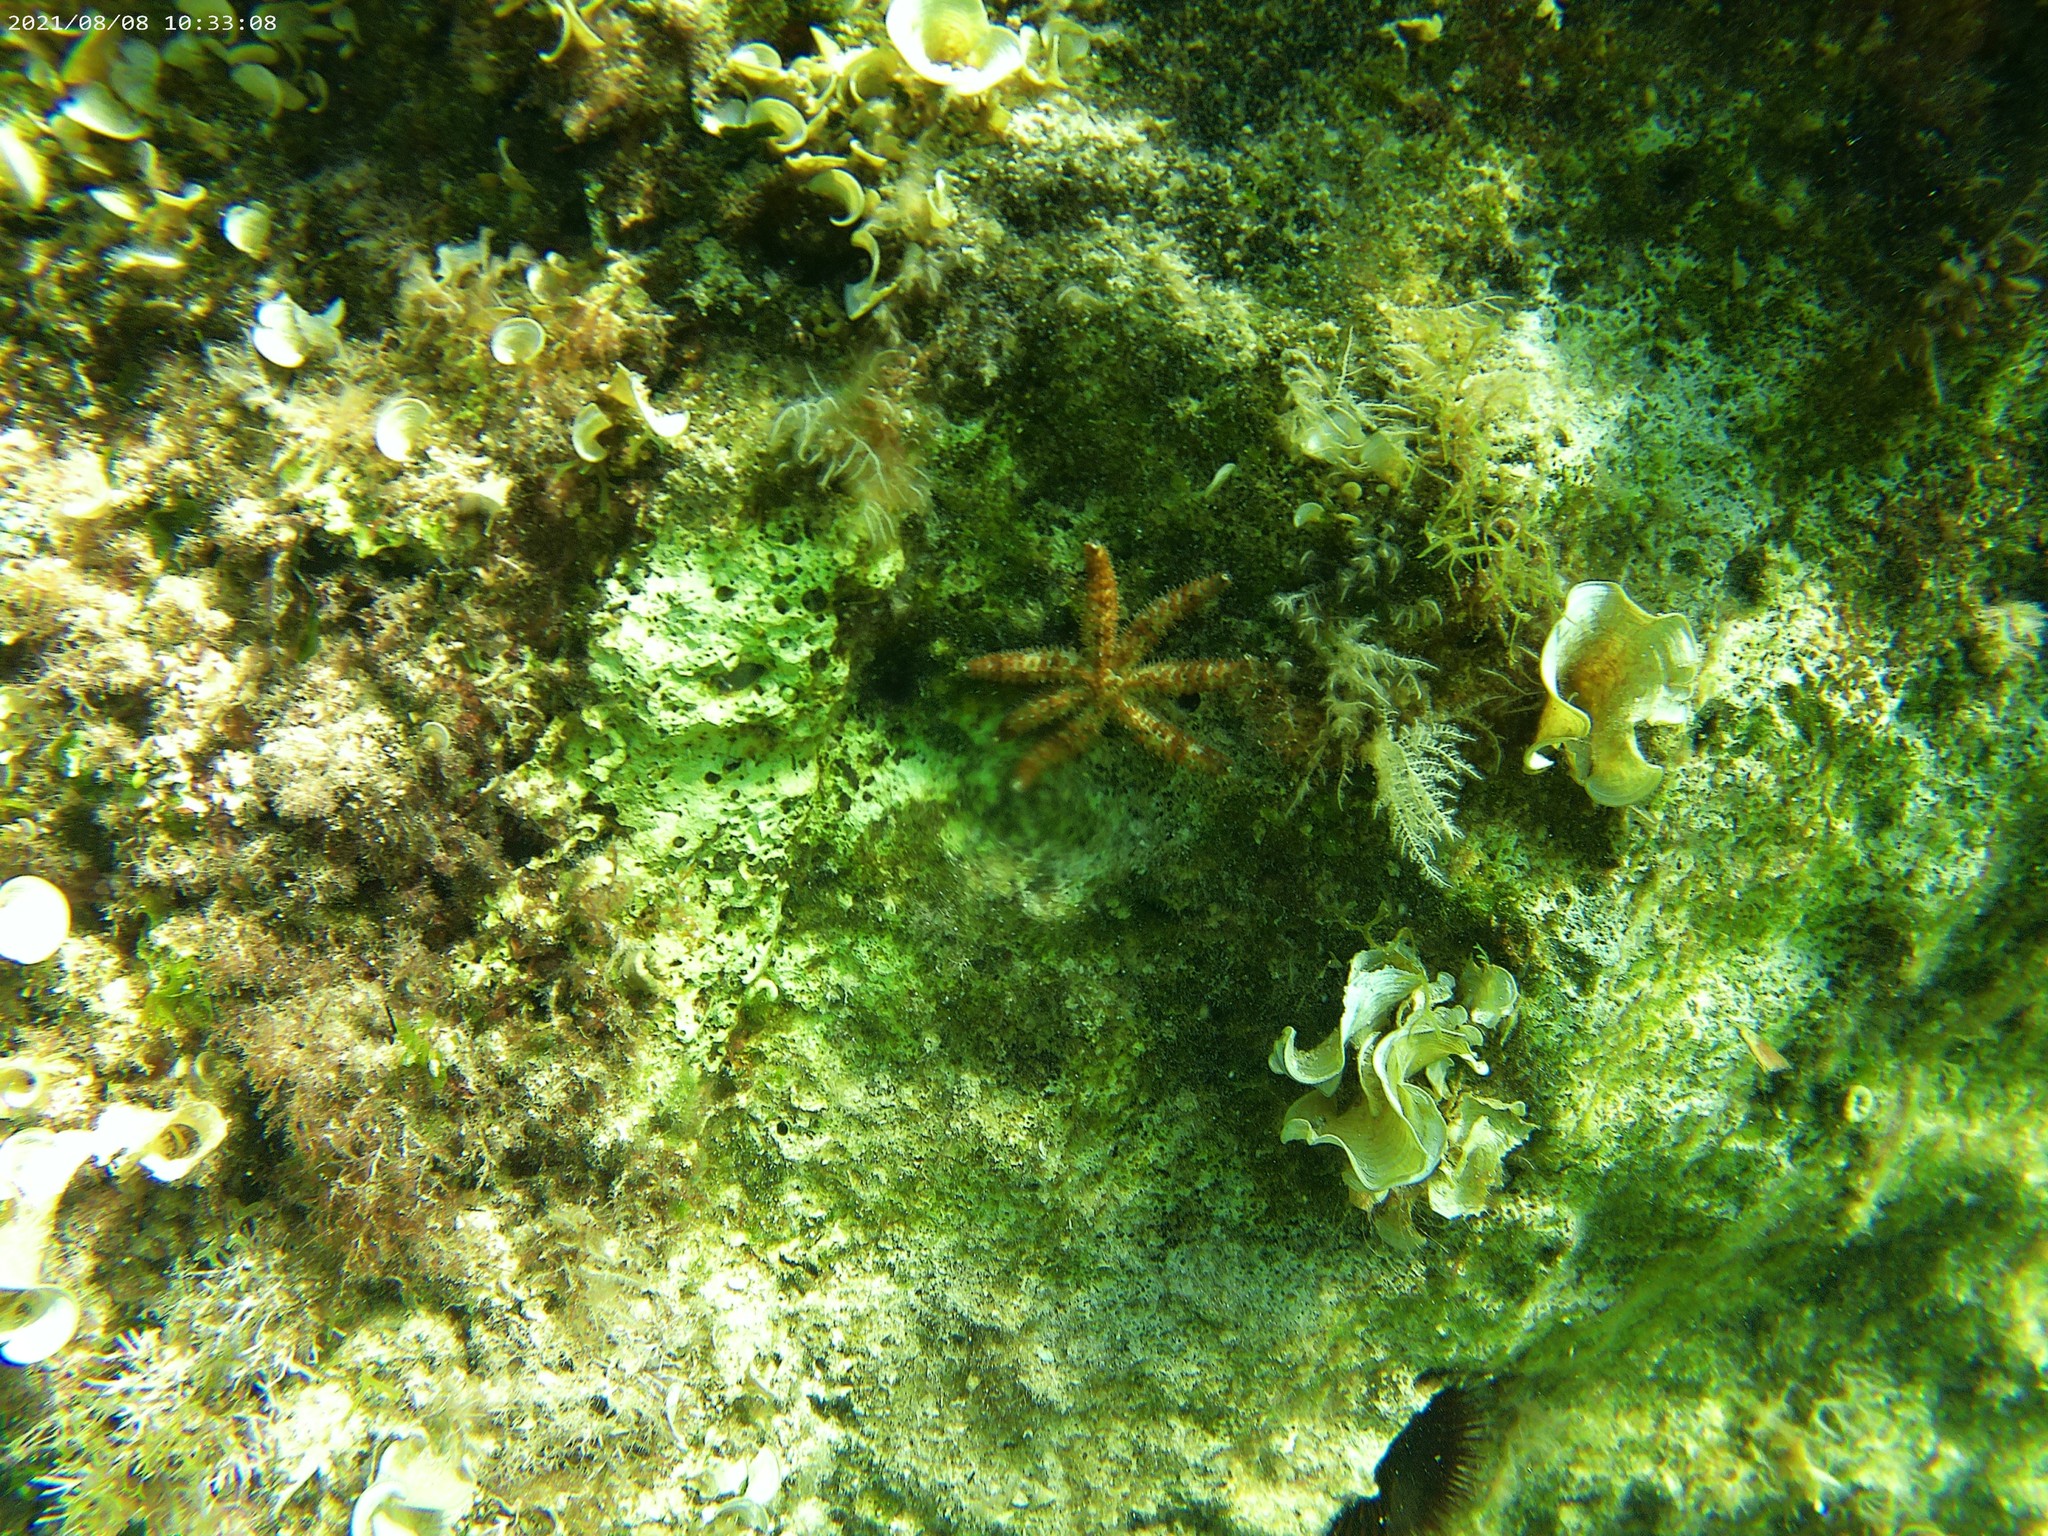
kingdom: Animalia
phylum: Echinodermata
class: Asteroidea
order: Forcipulatida
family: Asteriidae
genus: Coscinasterias
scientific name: Coscinasterias tenuispina
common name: Blue spiny starfish
